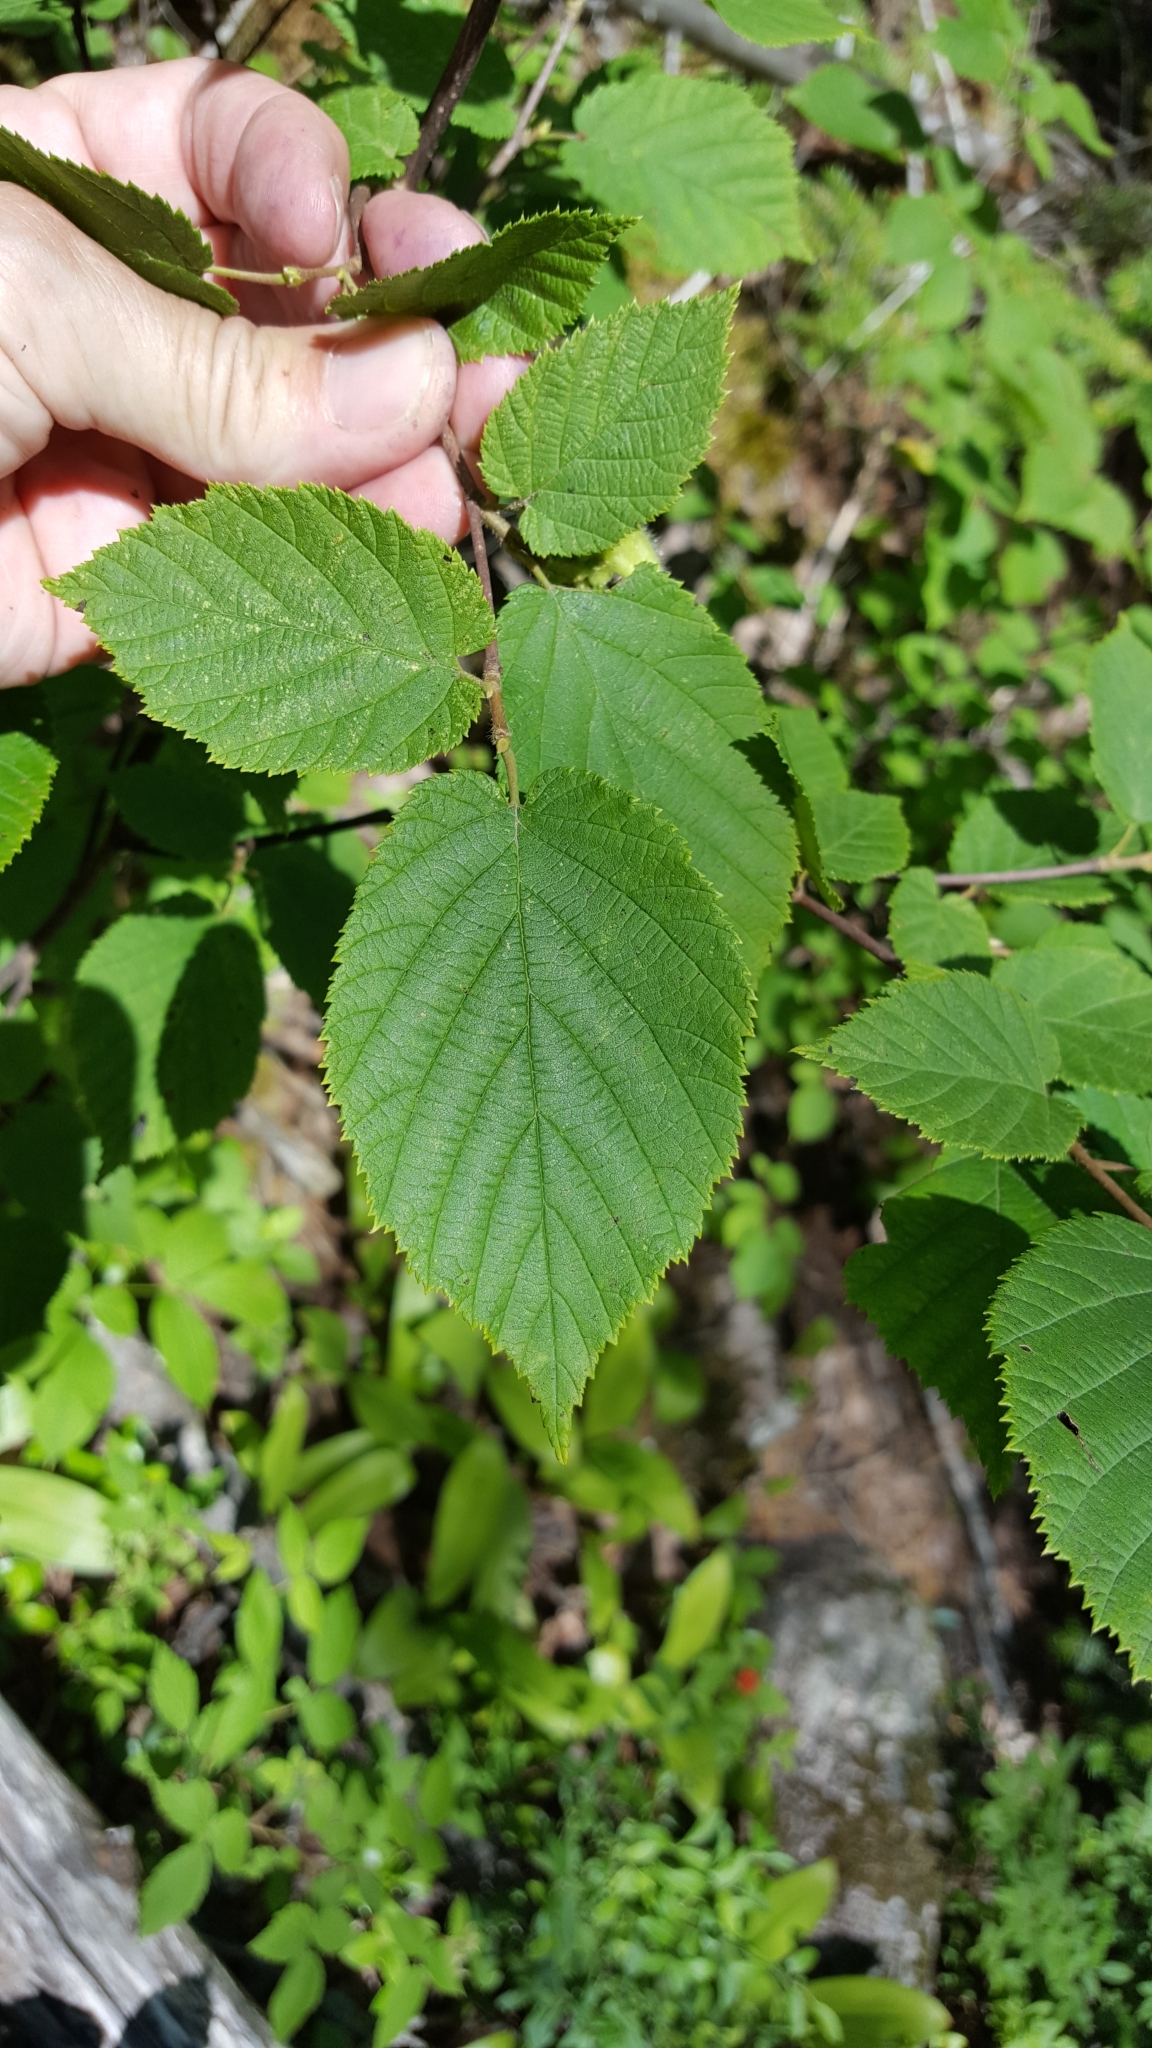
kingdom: Plantae
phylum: Tracheophyta
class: Magnoliopsida
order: Fagales
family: Betulaceae
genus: Corylus
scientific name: Corylus cornuta
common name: Beaked hazel
